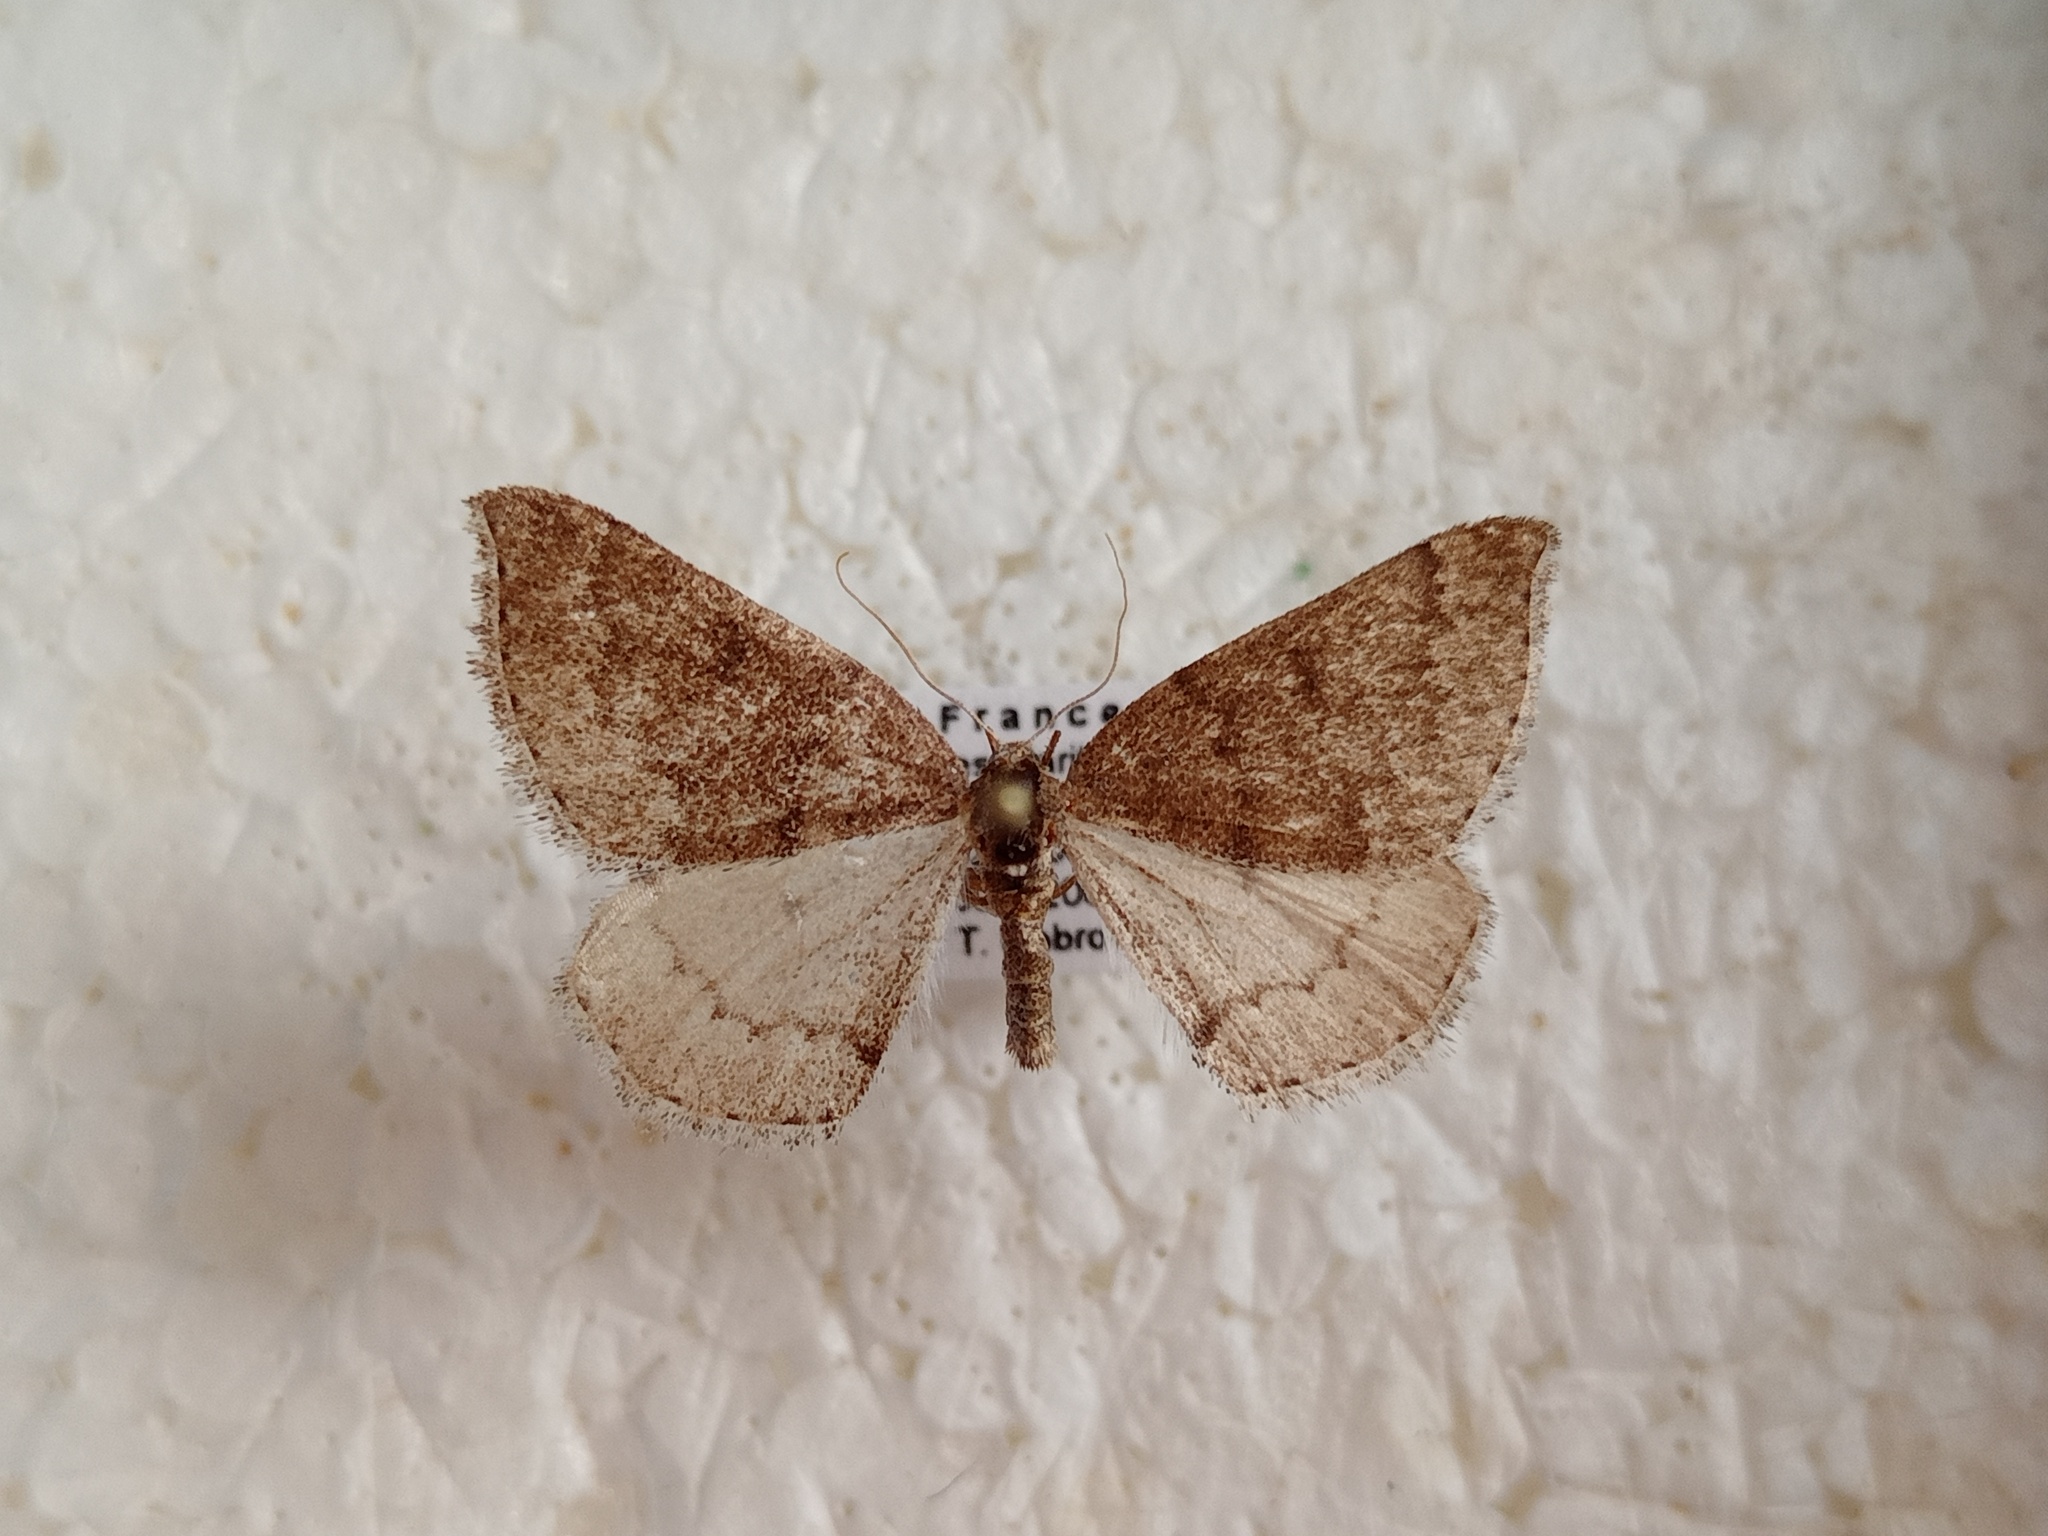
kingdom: Animalia
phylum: Arthropoda
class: Insecta
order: Lepidoptera
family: Geometridae
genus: Aleucis
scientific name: Aleucis distinctata
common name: Sloe carpet
